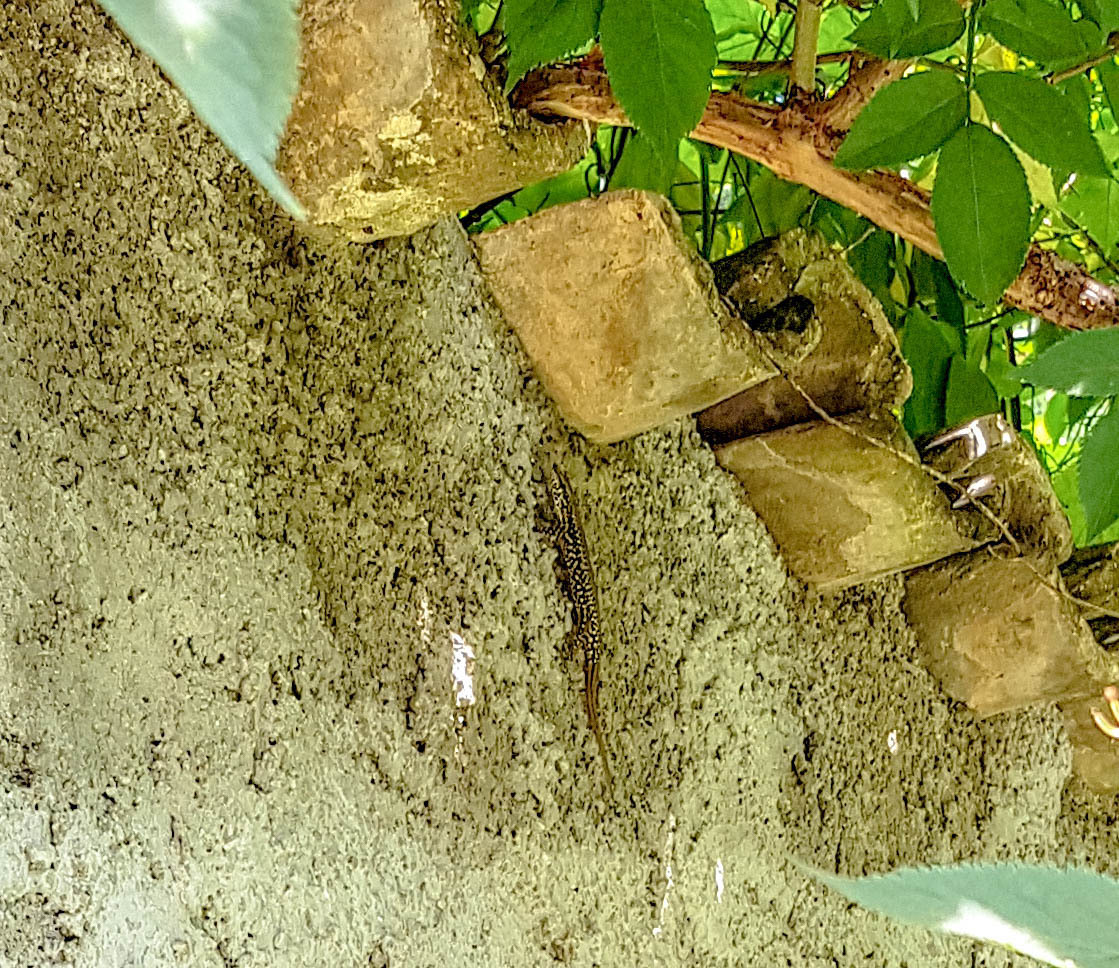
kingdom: Animalia
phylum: Chordata
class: Squamata
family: Lacertidae
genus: Podarcis
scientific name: Podarcis muralis
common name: Common wall lizard
